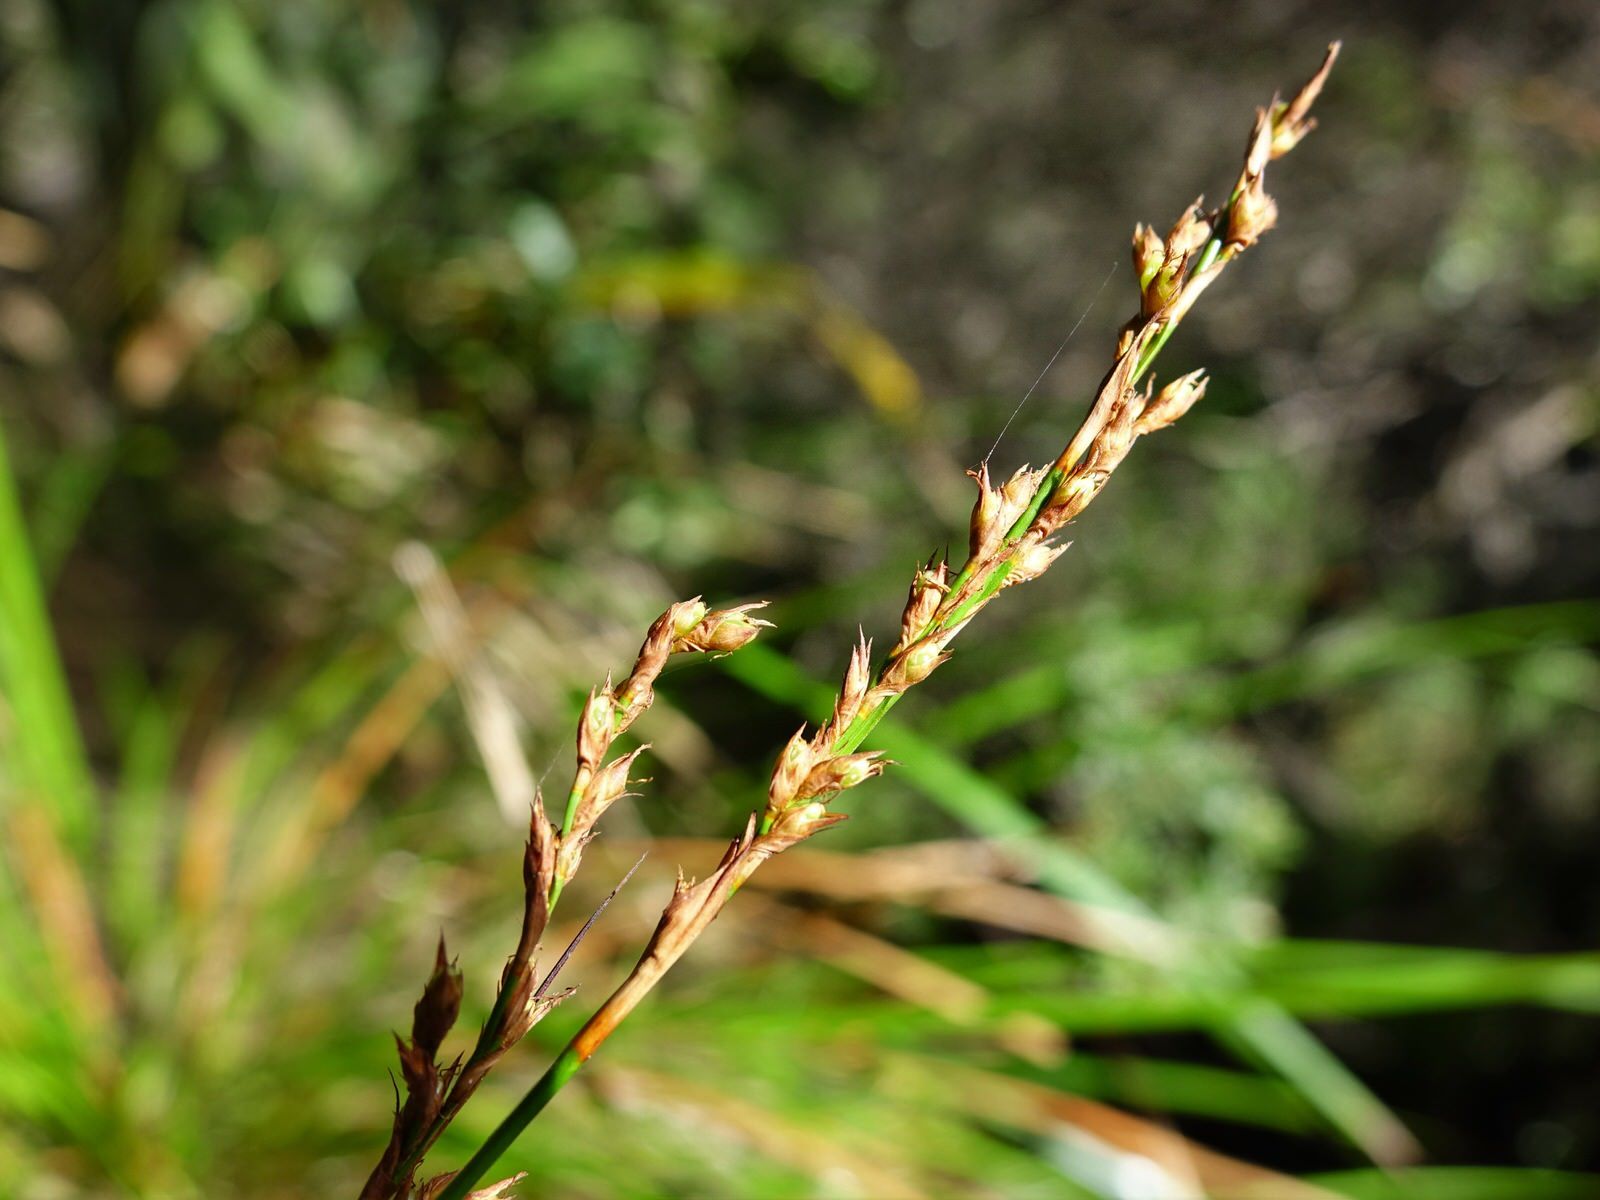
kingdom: Plantae
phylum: Tracheophyta
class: Liliopsida
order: Poales
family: Cyperaceae
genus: Lepidosperma
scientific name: Lepidosperma laterale
